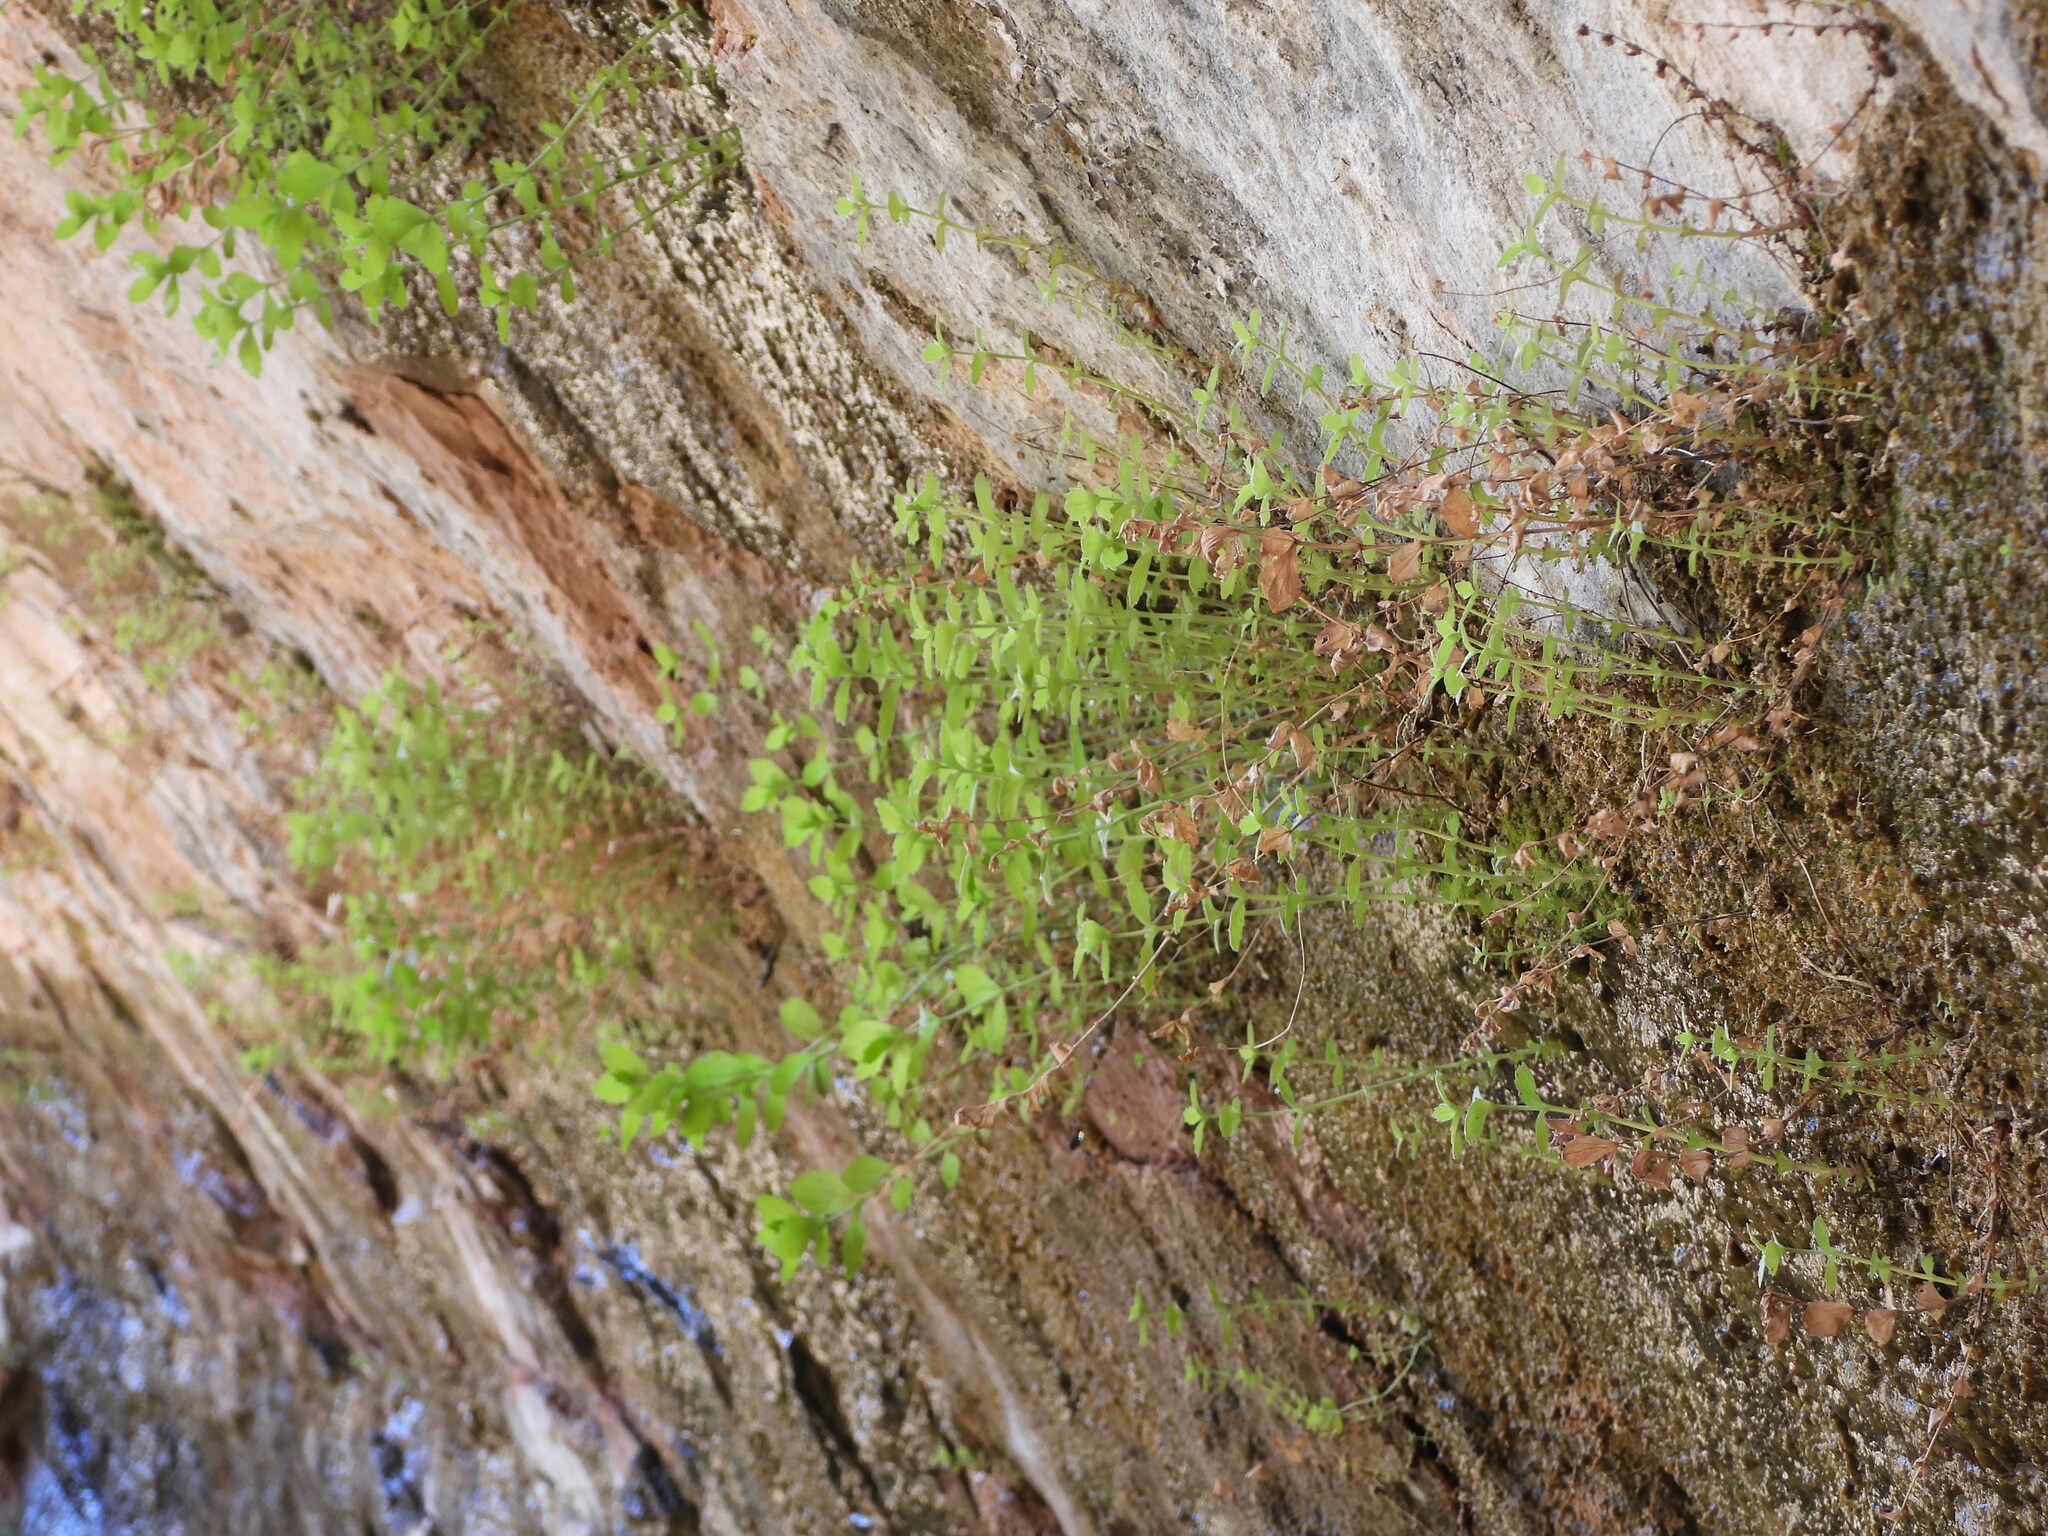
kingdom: Plantae
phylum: Tracheophyta
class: Magnoliopsida
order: Lamiales
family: Phrymaceae
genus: Erythranthe
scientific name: Erythranthe eastwoodiae
